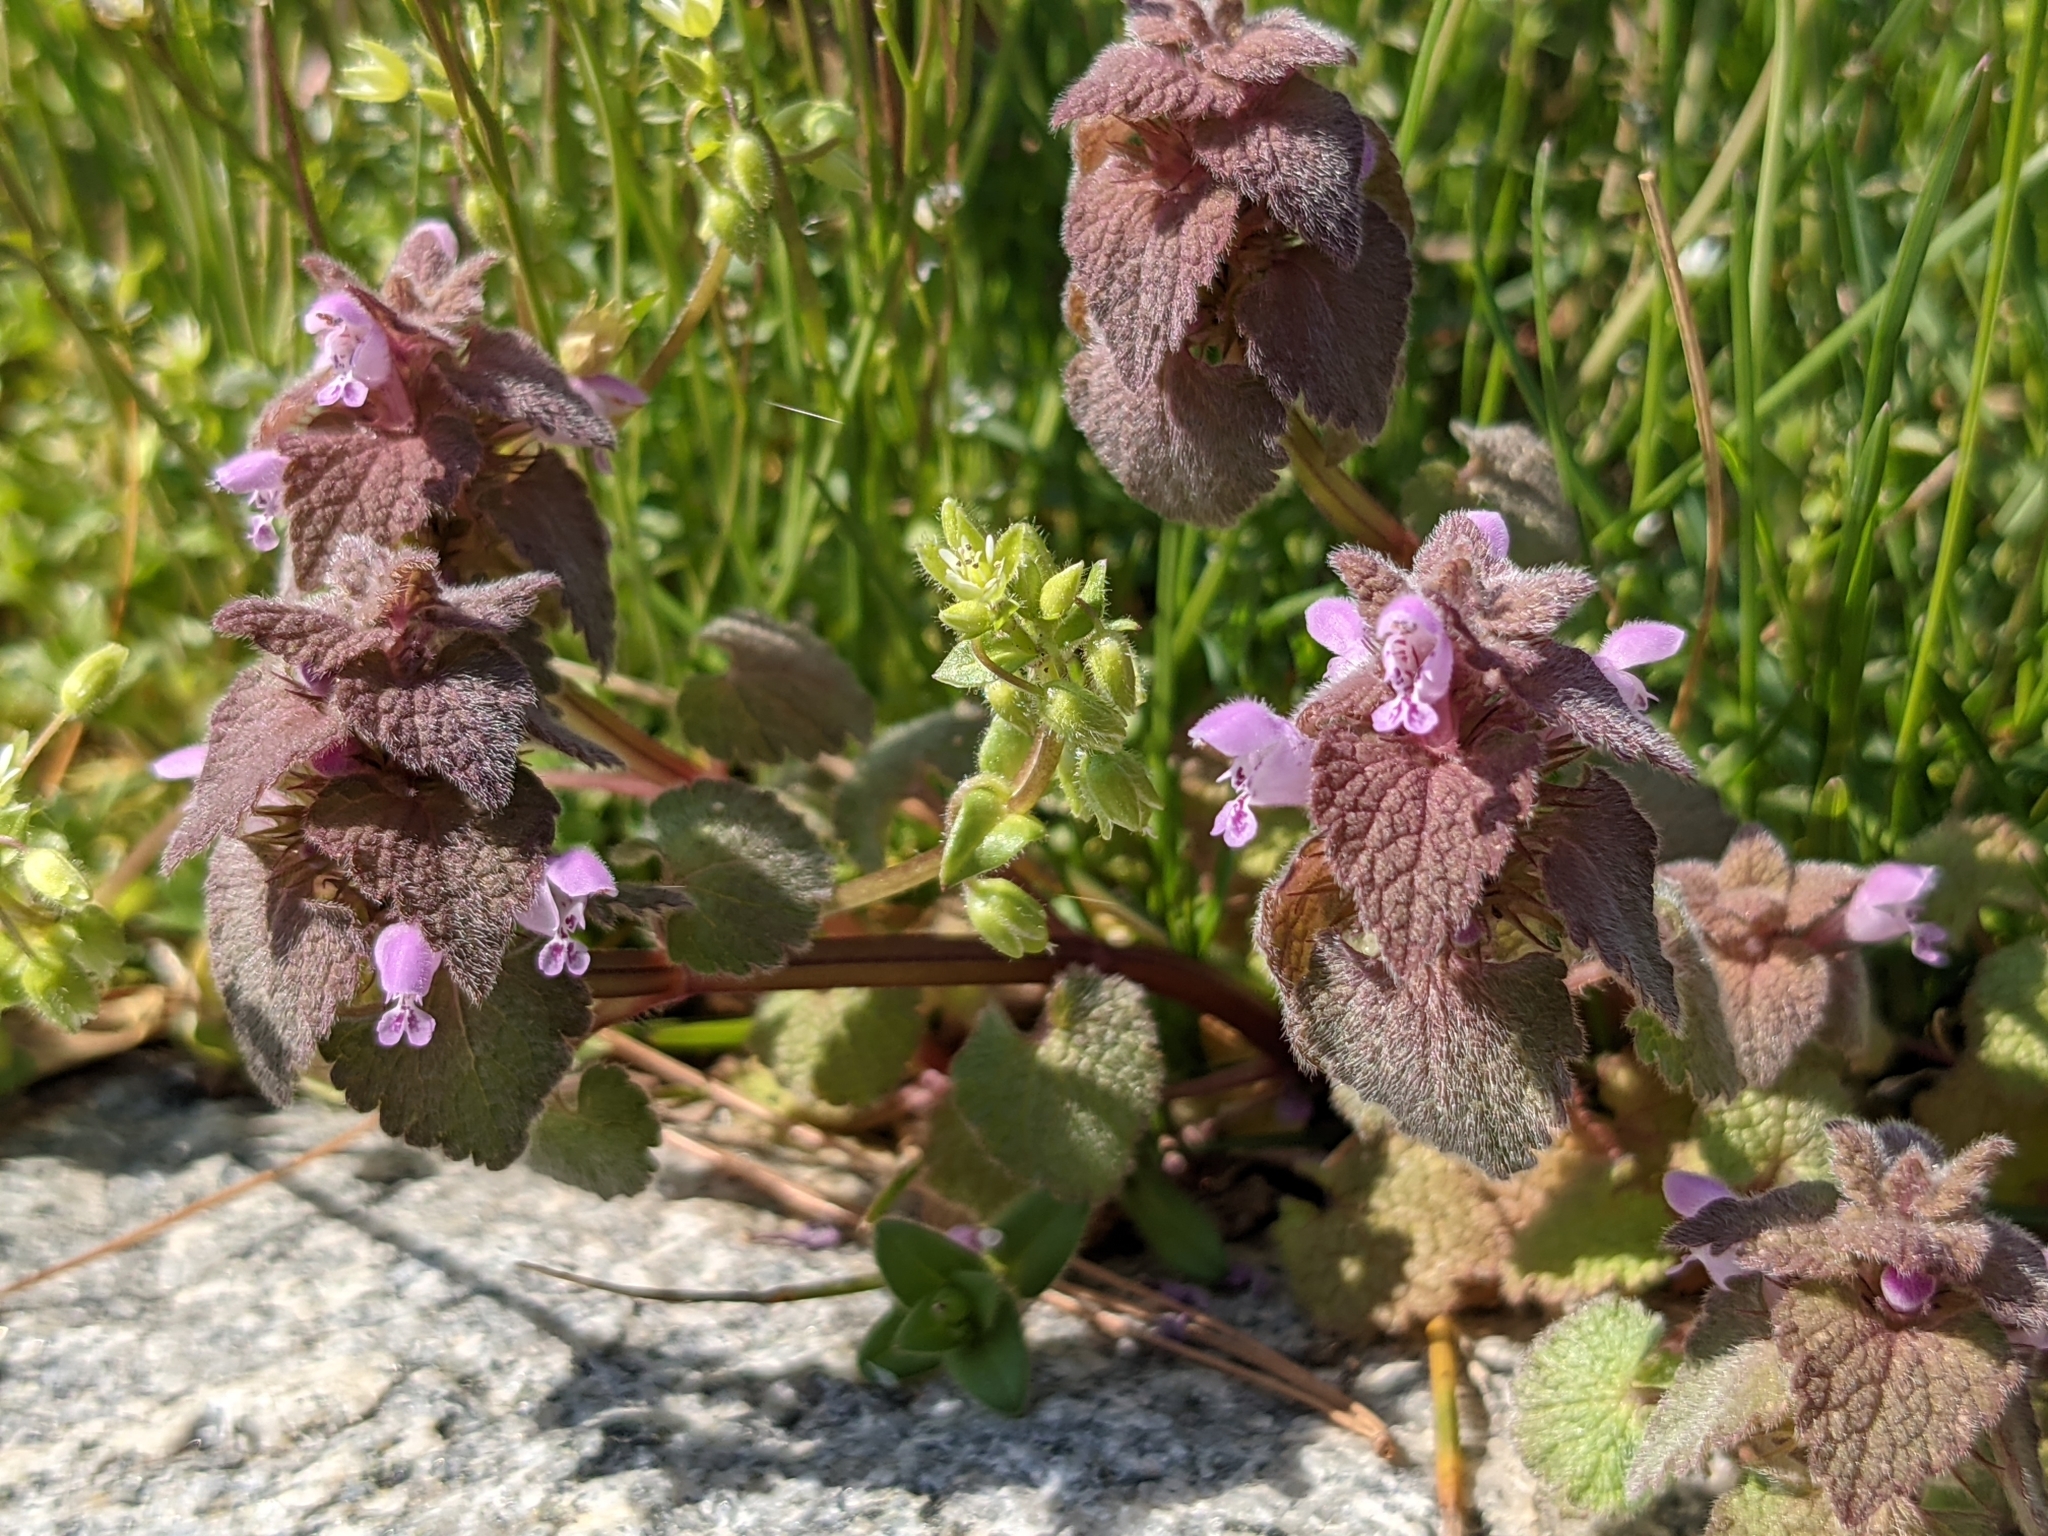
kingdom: Plantae
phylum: Tracheophyta
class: Magnoliopsida
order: Lamiales
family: Lamiaceae
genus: Lamium
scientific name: Lamium purpureum
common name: Red dead-nettle
